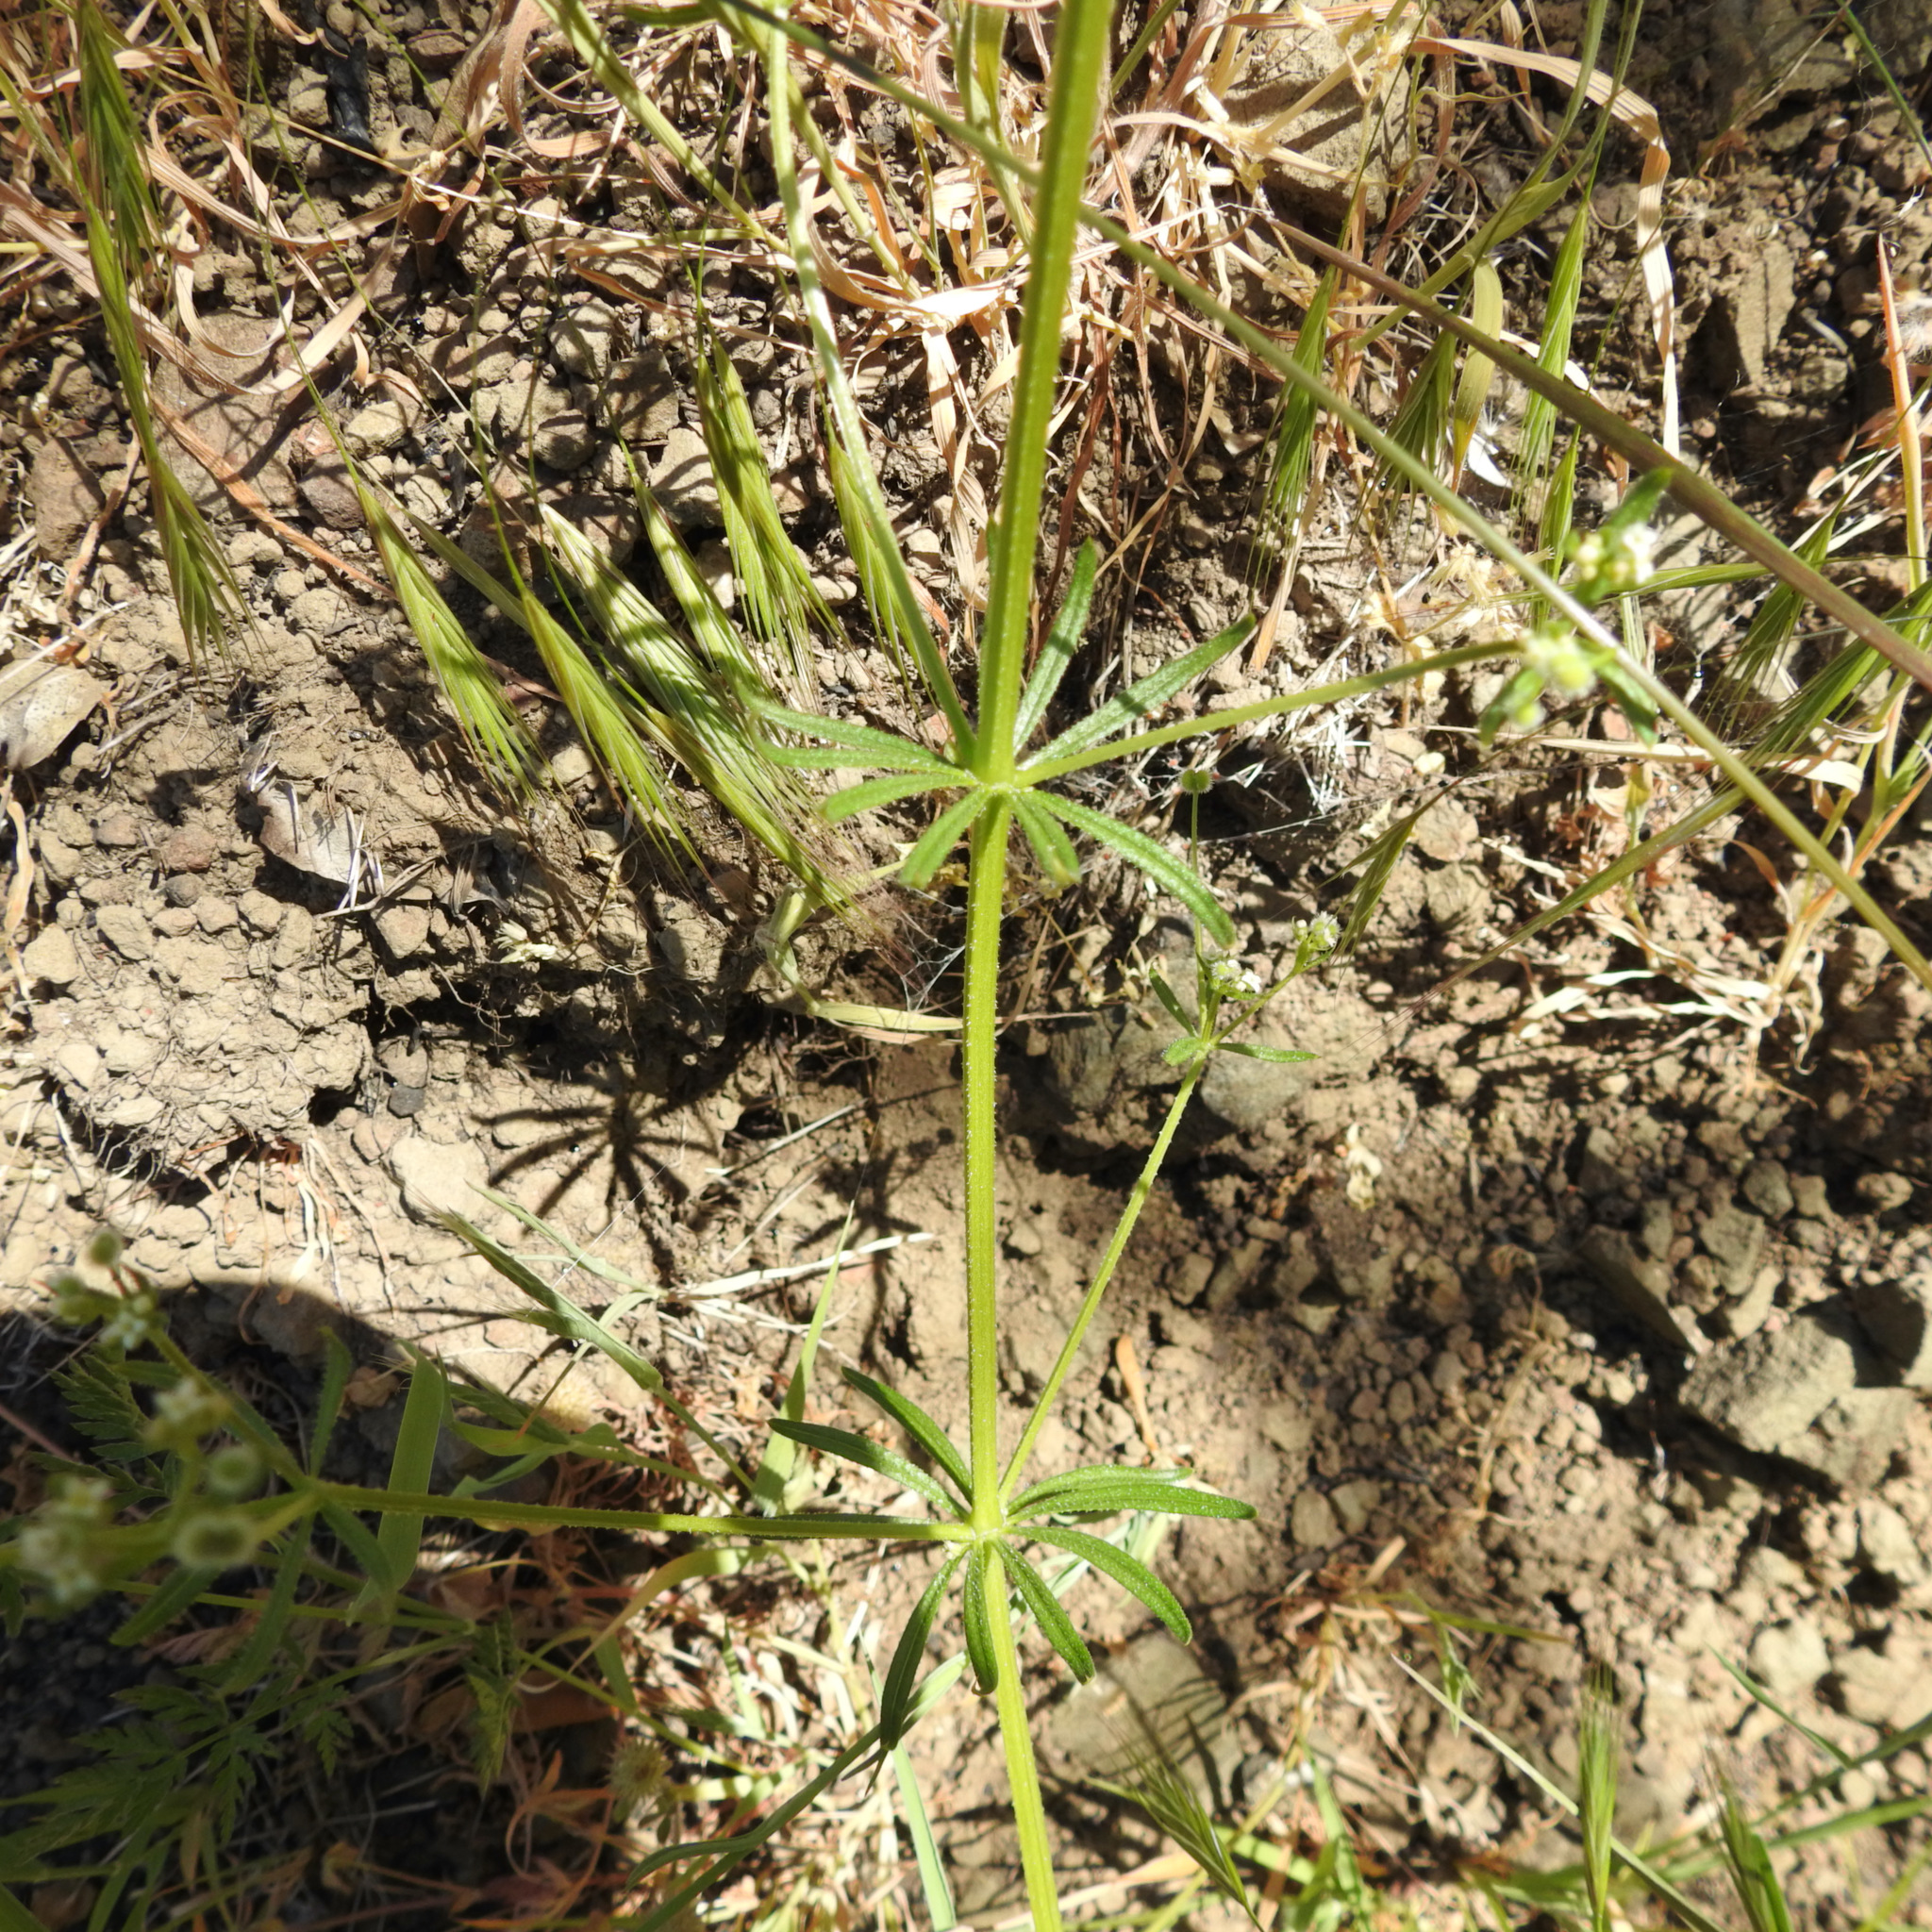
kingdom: Plantae
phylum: Tracheophyta
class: Magnoliopsida
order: Gentianales
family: Rubiaceae
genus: Galium
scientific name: Galium aparine
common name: Cleavers
